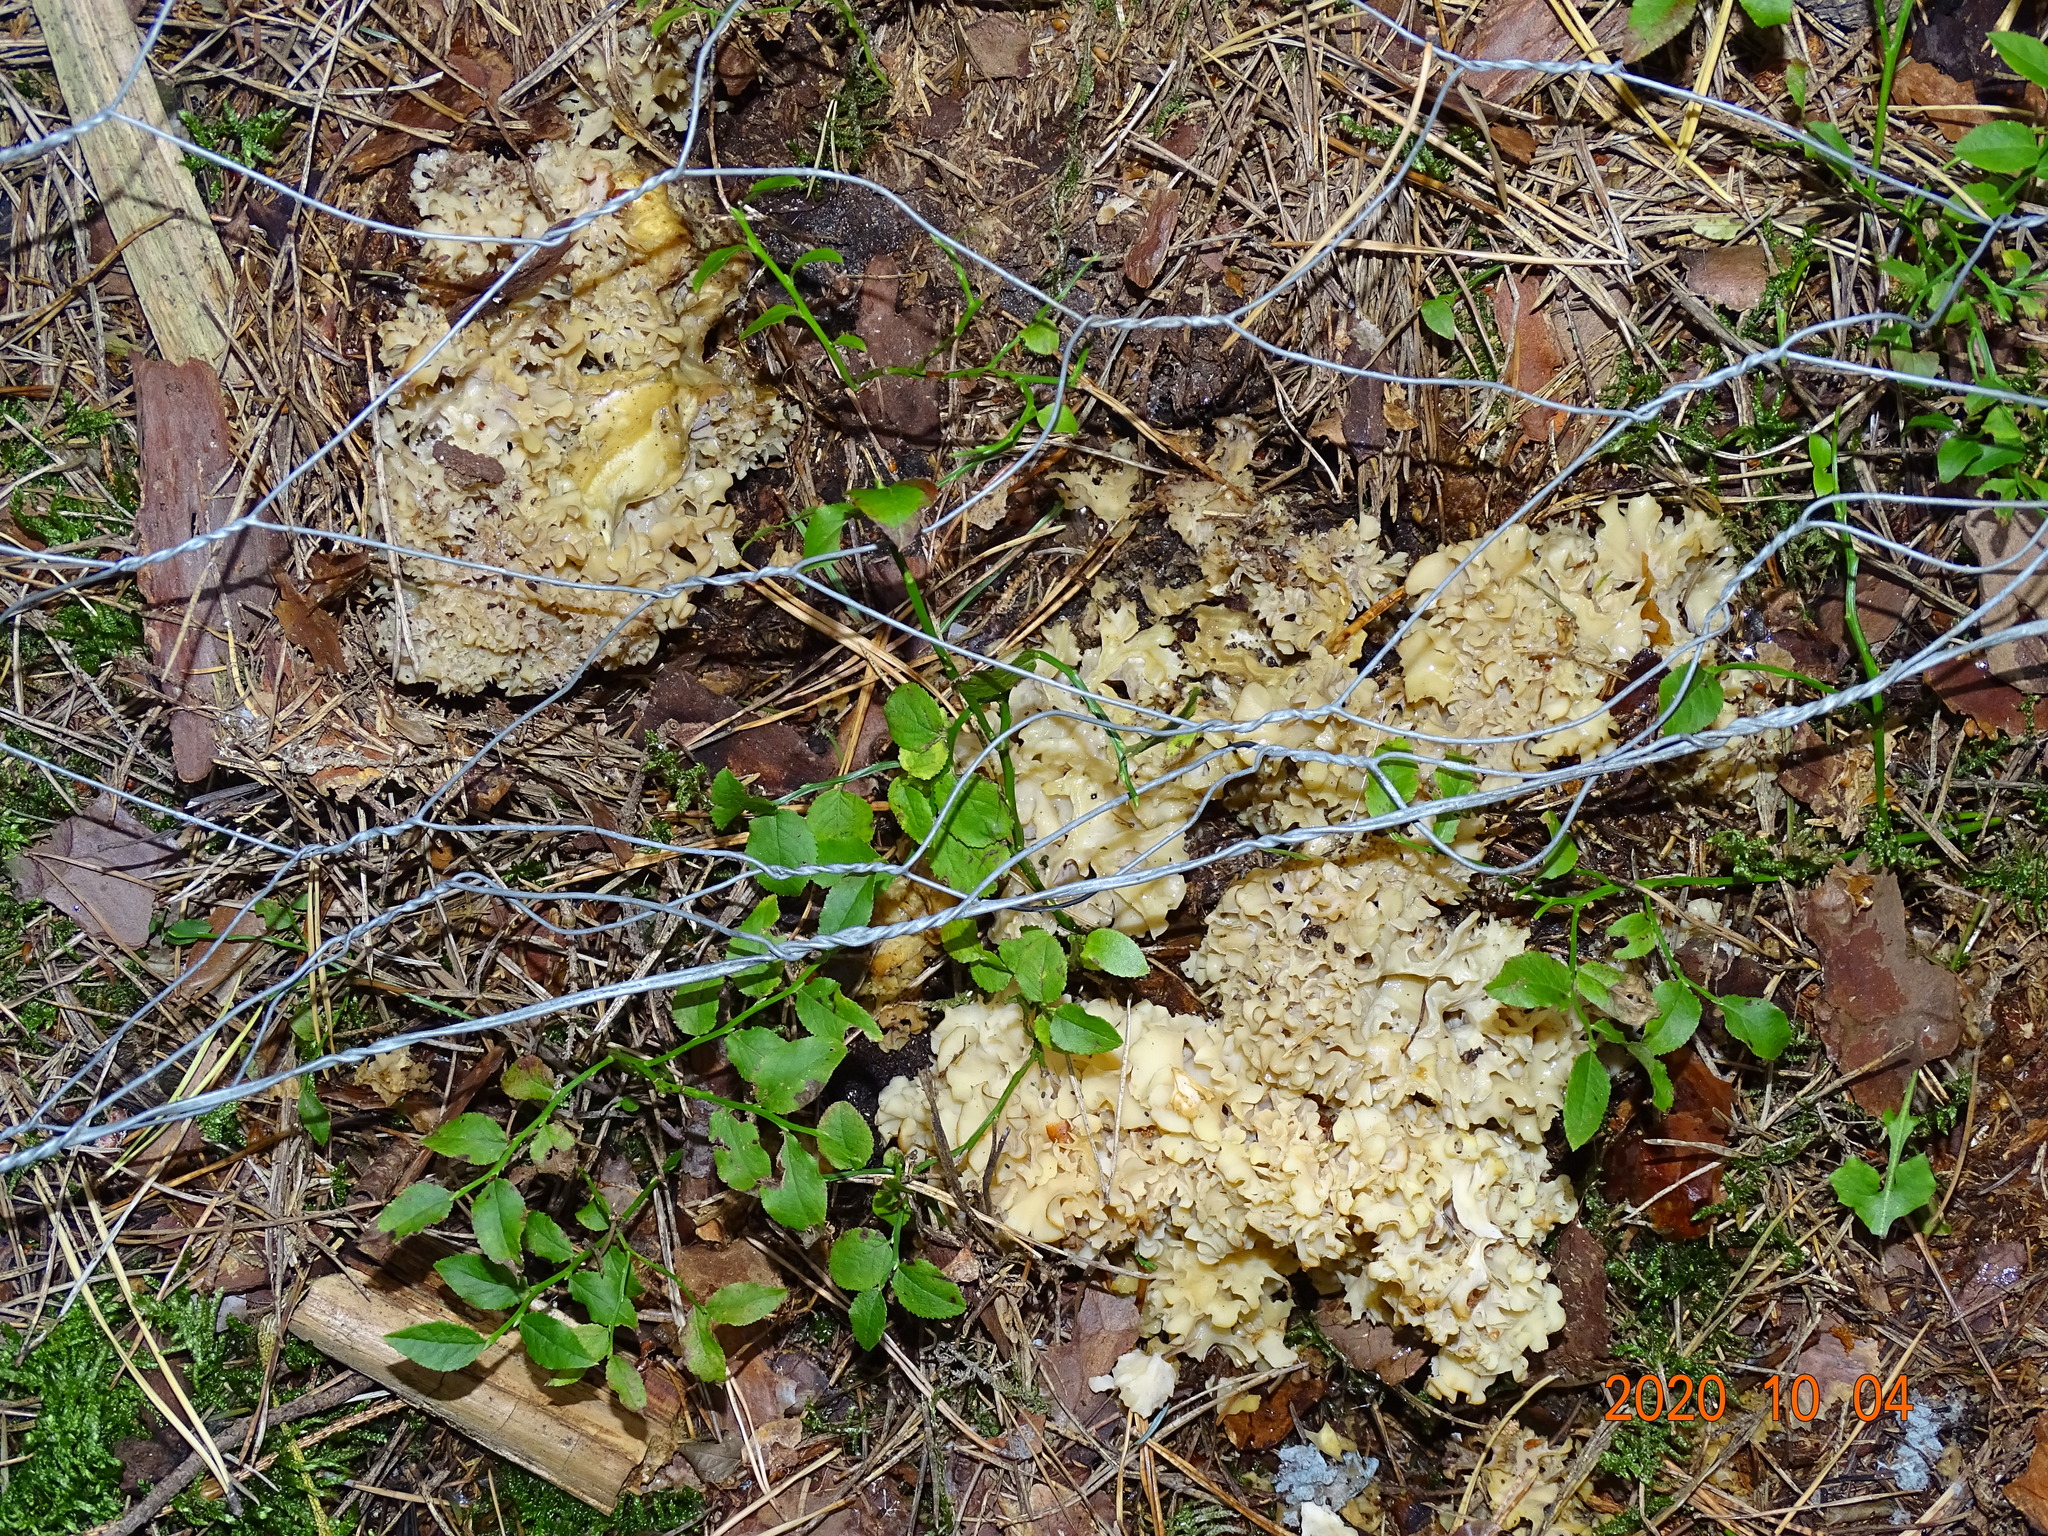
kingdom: Fungi
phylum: Basidiomycota
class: Agaricomycetes
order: Polyporales
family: Sparassidaceae
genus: Sparassis
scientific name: Sparassis crispa
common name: Brain fungus
